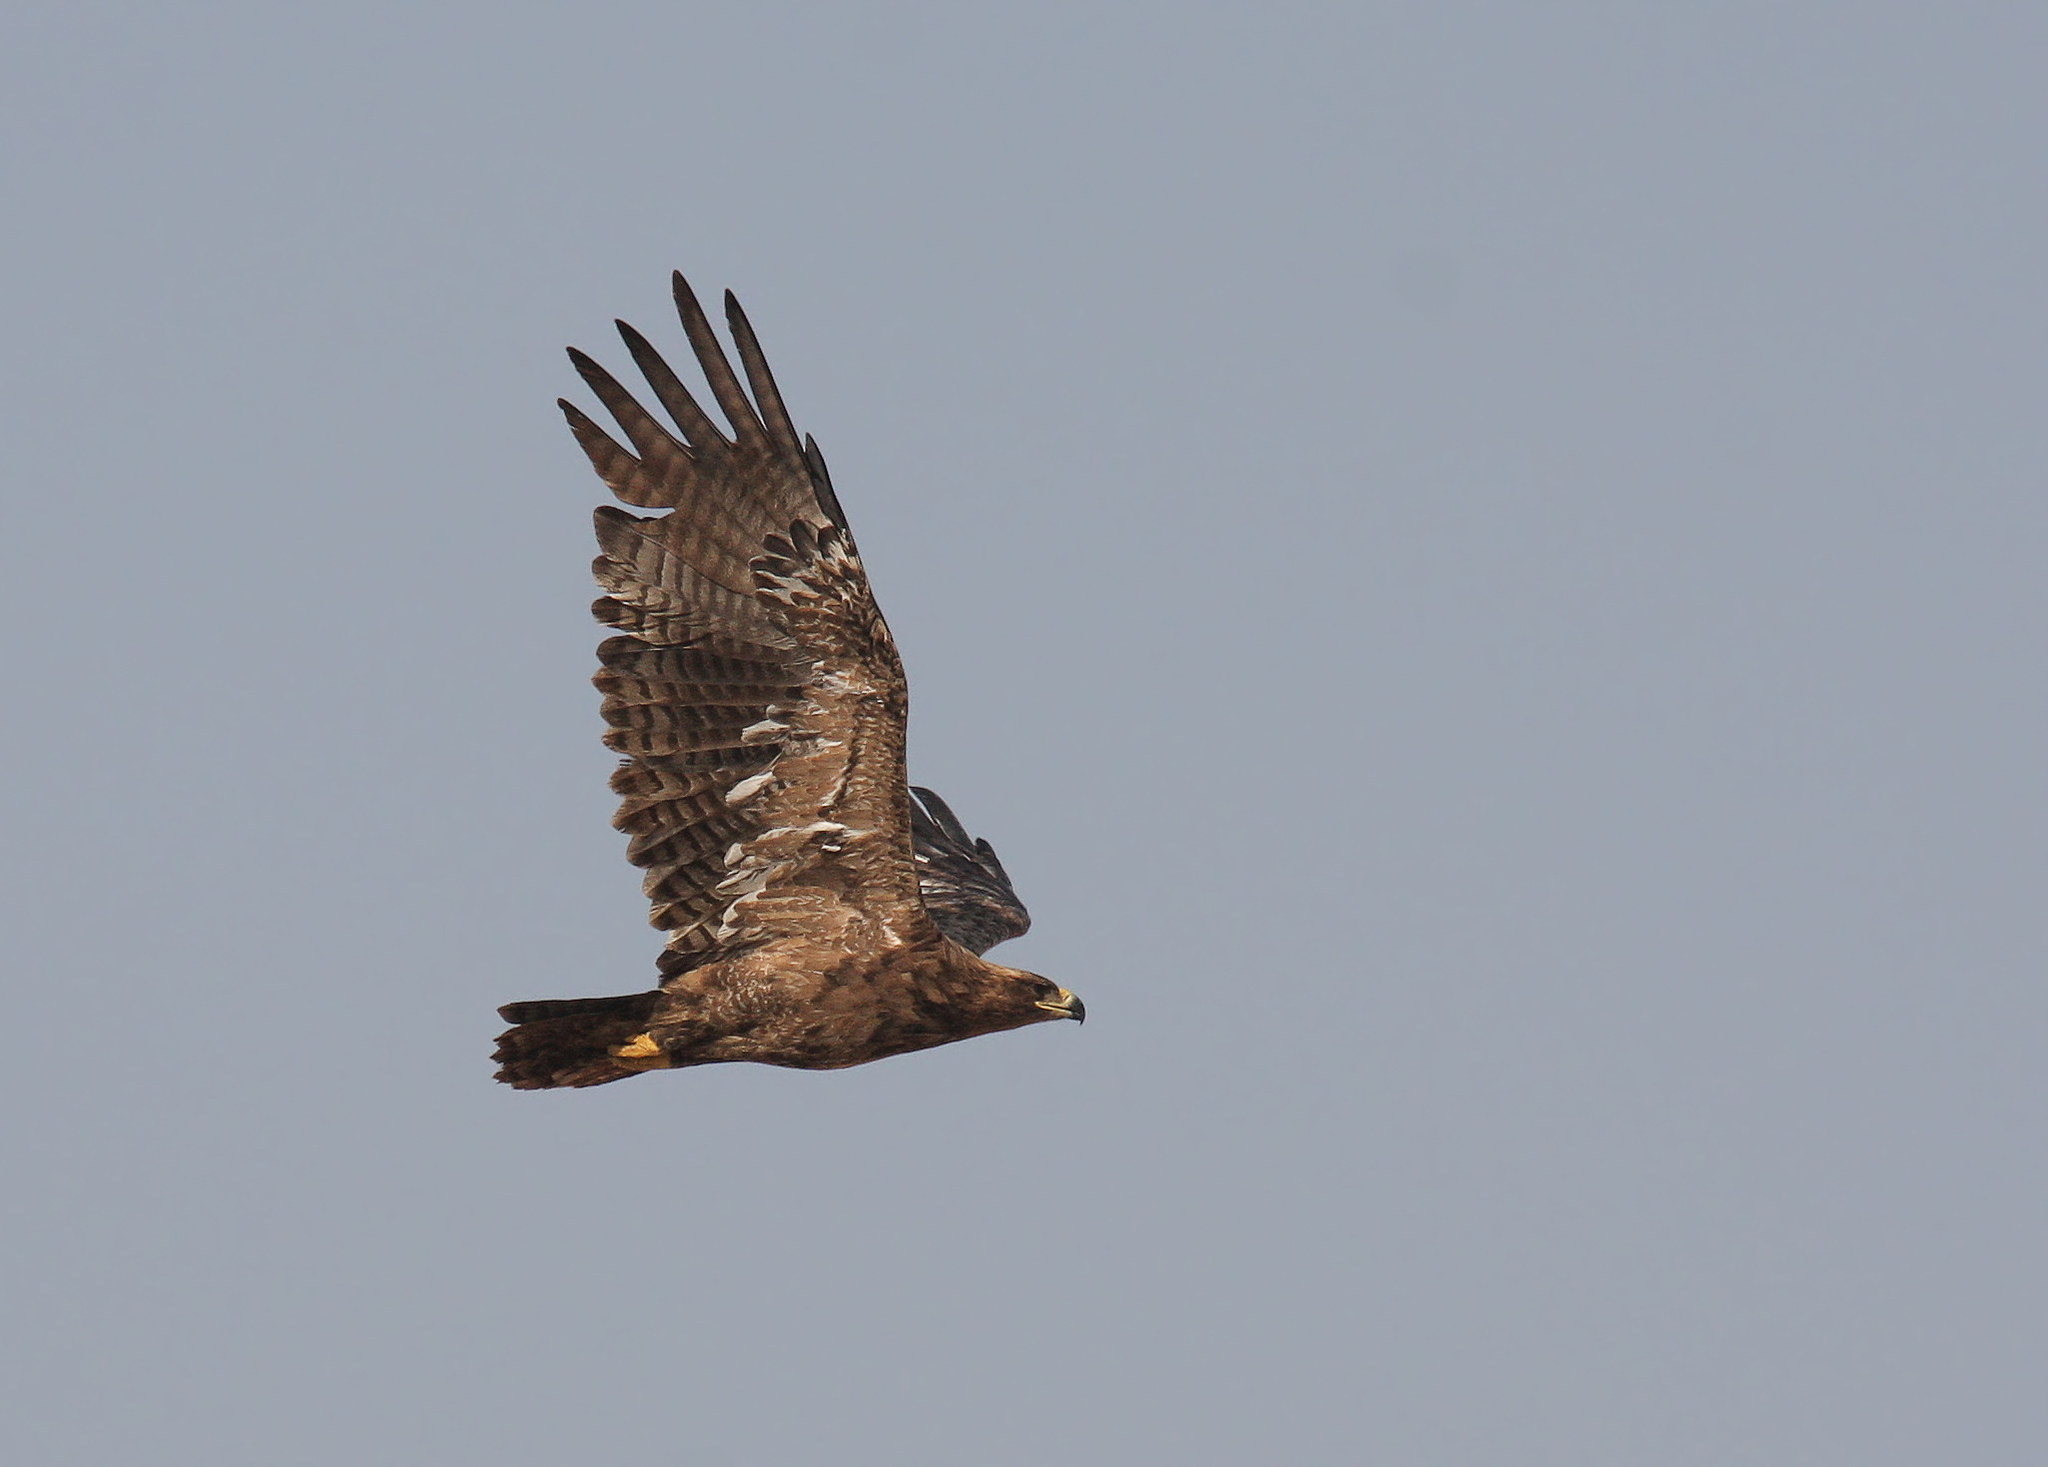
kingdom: Animalia
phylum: Chordata
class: Aves
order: Accipitriformes
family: Accipitridae
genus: Aquila
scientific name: Aquila nipalensis
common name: Steppe eagle
